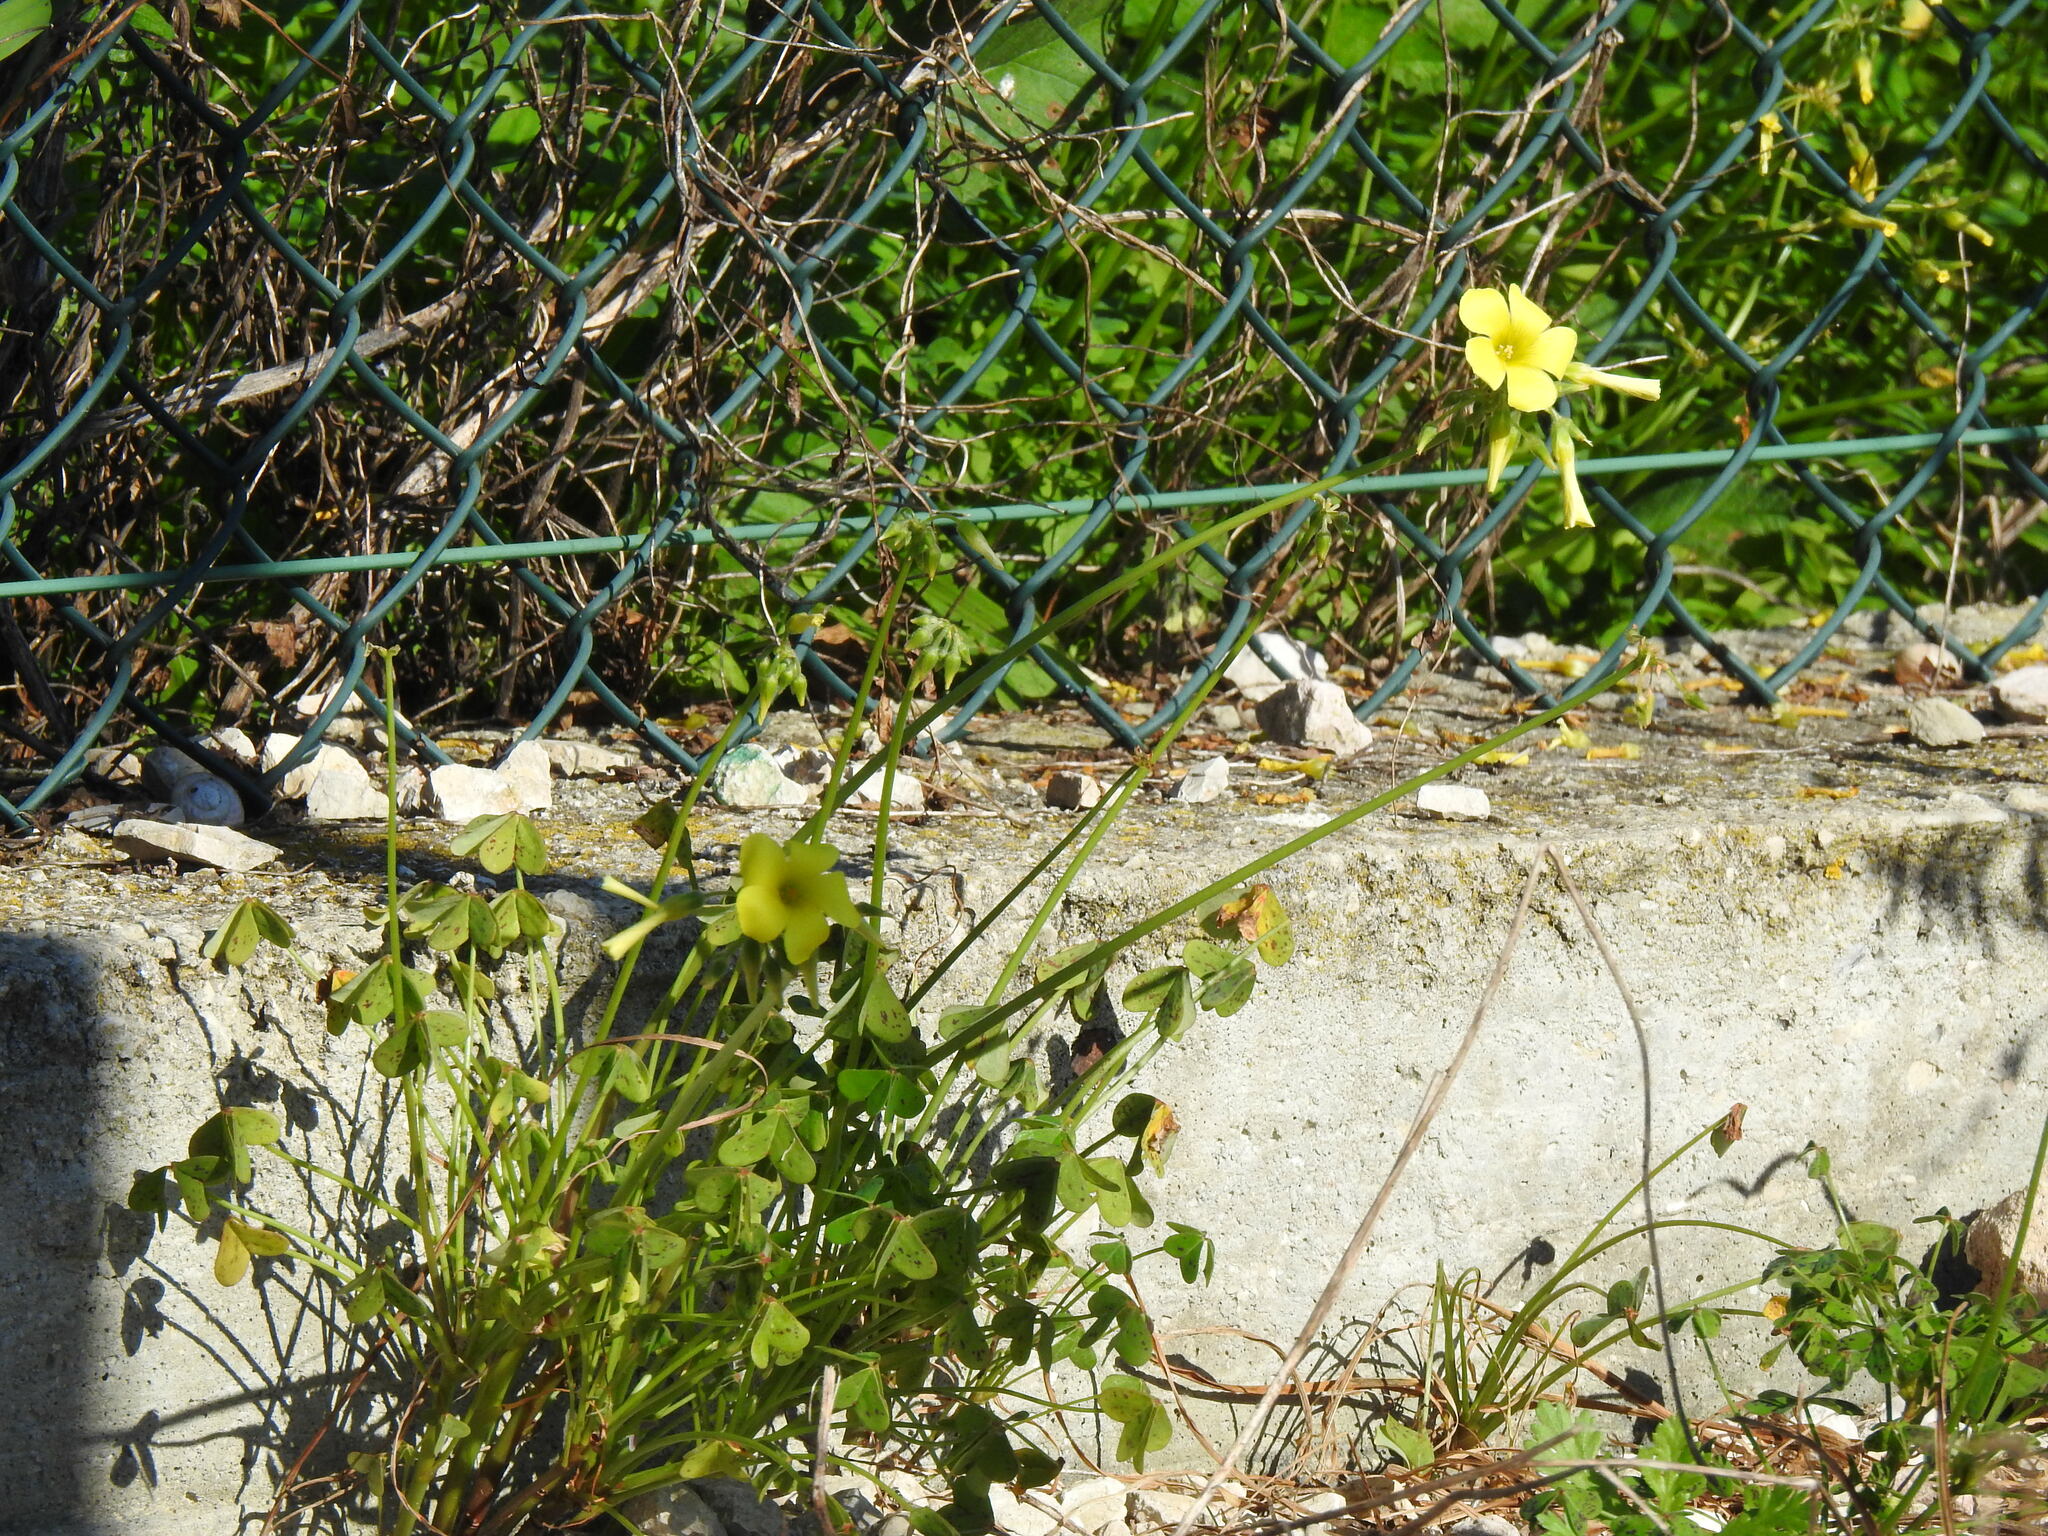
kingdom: Plantae
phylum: Tracheophyta
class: Magnoliopsida
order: Oxalidales
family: Oxalidaceae
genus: Oxalis
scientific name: Oxalis pes-caprae
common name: Bermuda-buttercup
